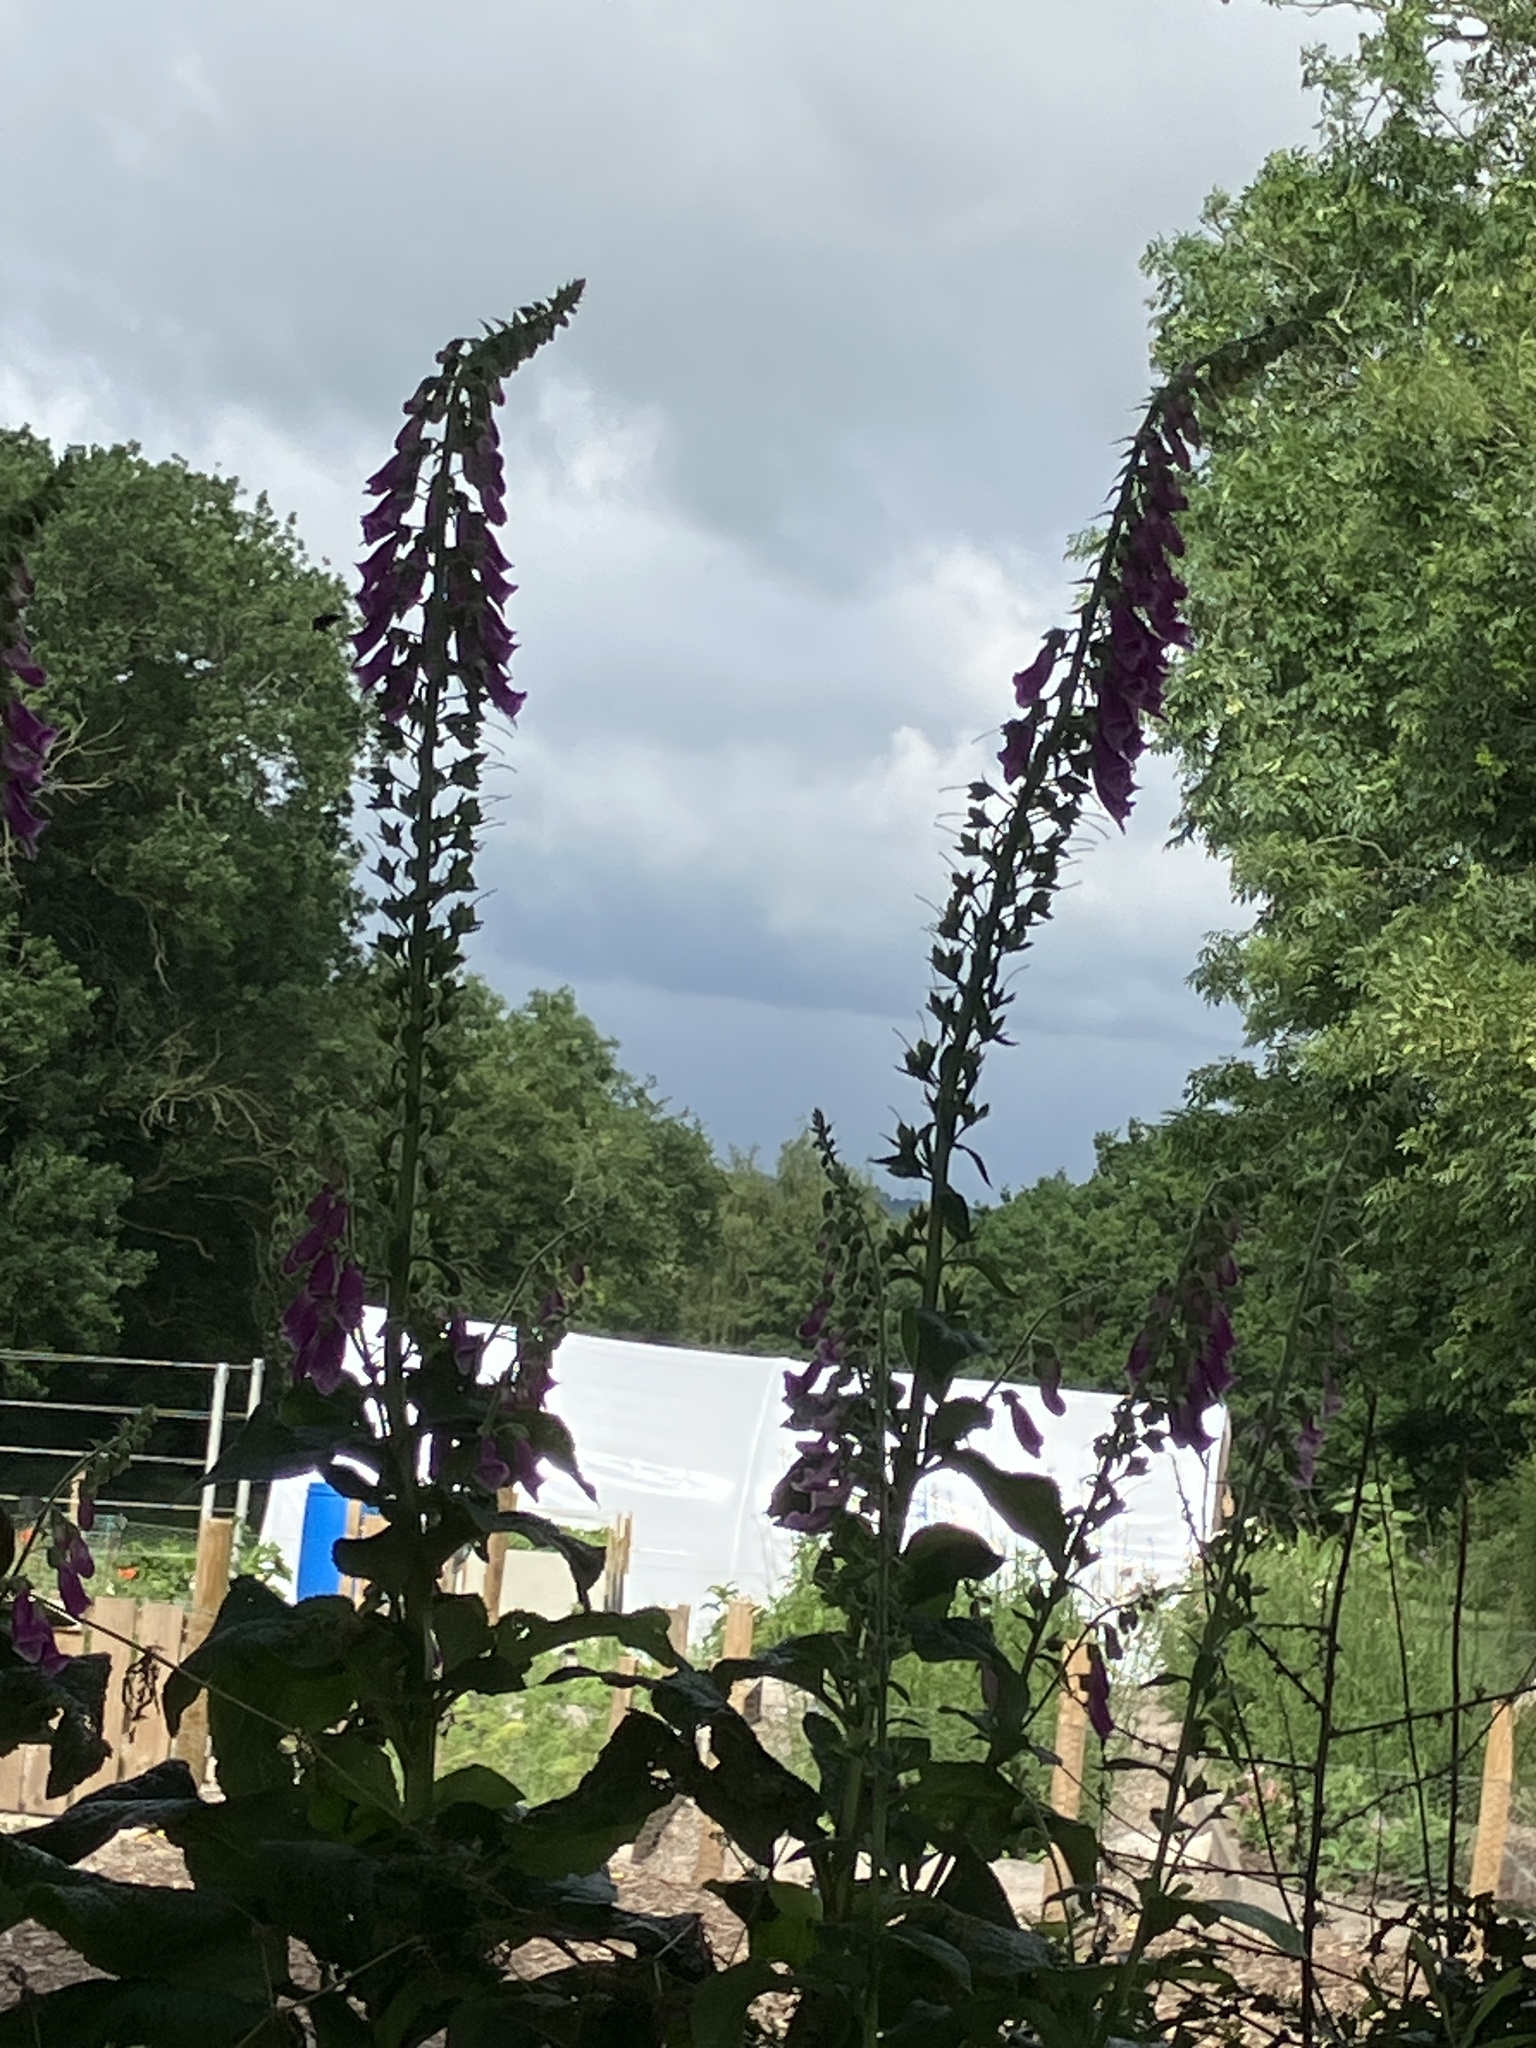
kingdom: Plantae
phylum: Tracheophyta
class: Magnoliopsida
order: Lamiales
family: Plantaginaceae
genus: Digitalis
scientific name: Digitalis purpurea
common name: Foxglove
